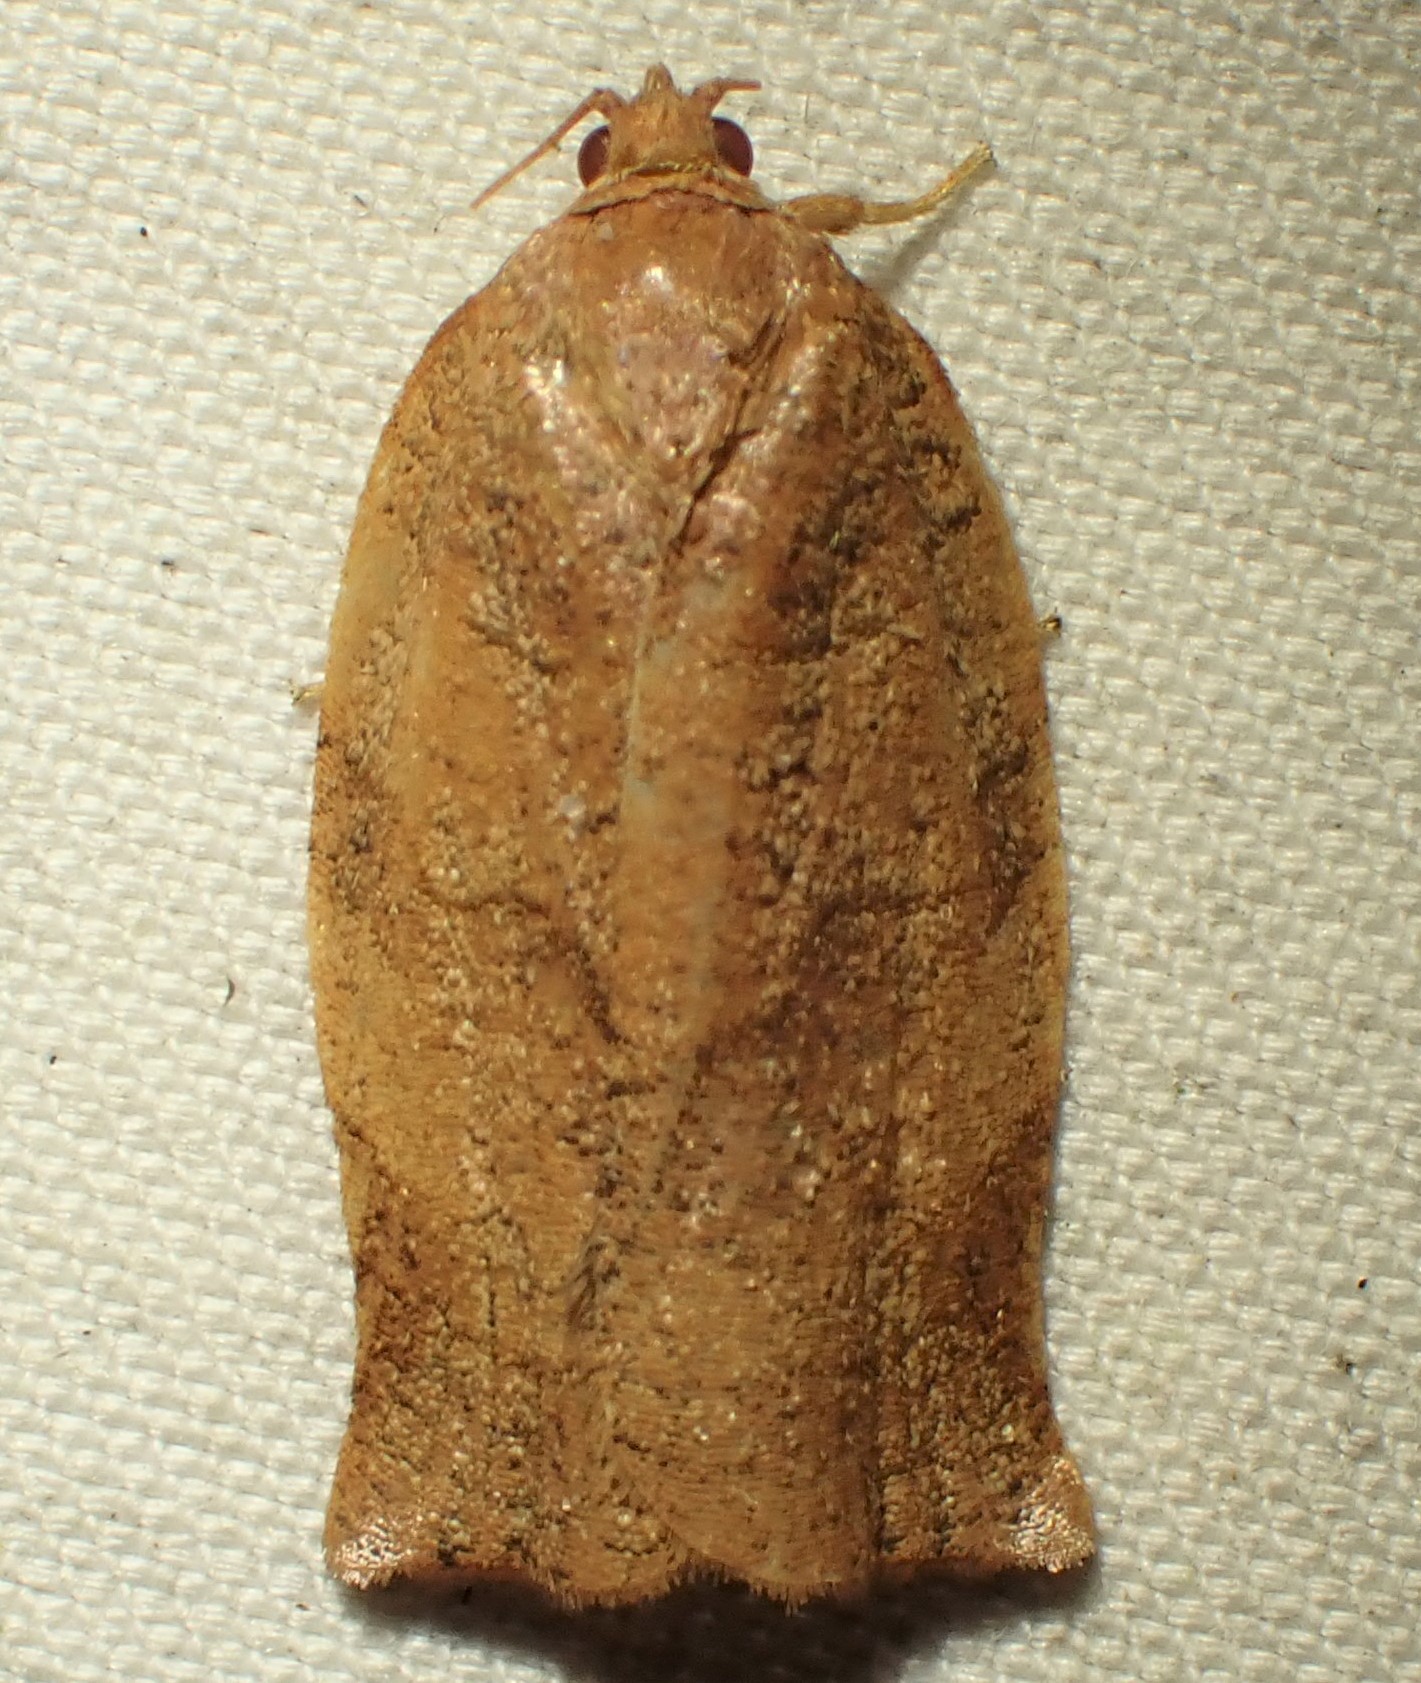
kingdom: Animalia
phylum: Arthropoda
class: Insecta
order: Lepidoptera
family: Tortricidae
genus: Choristoneura
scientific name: Choristoneura rosaceana
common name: Oblique-banded leafroller moth
